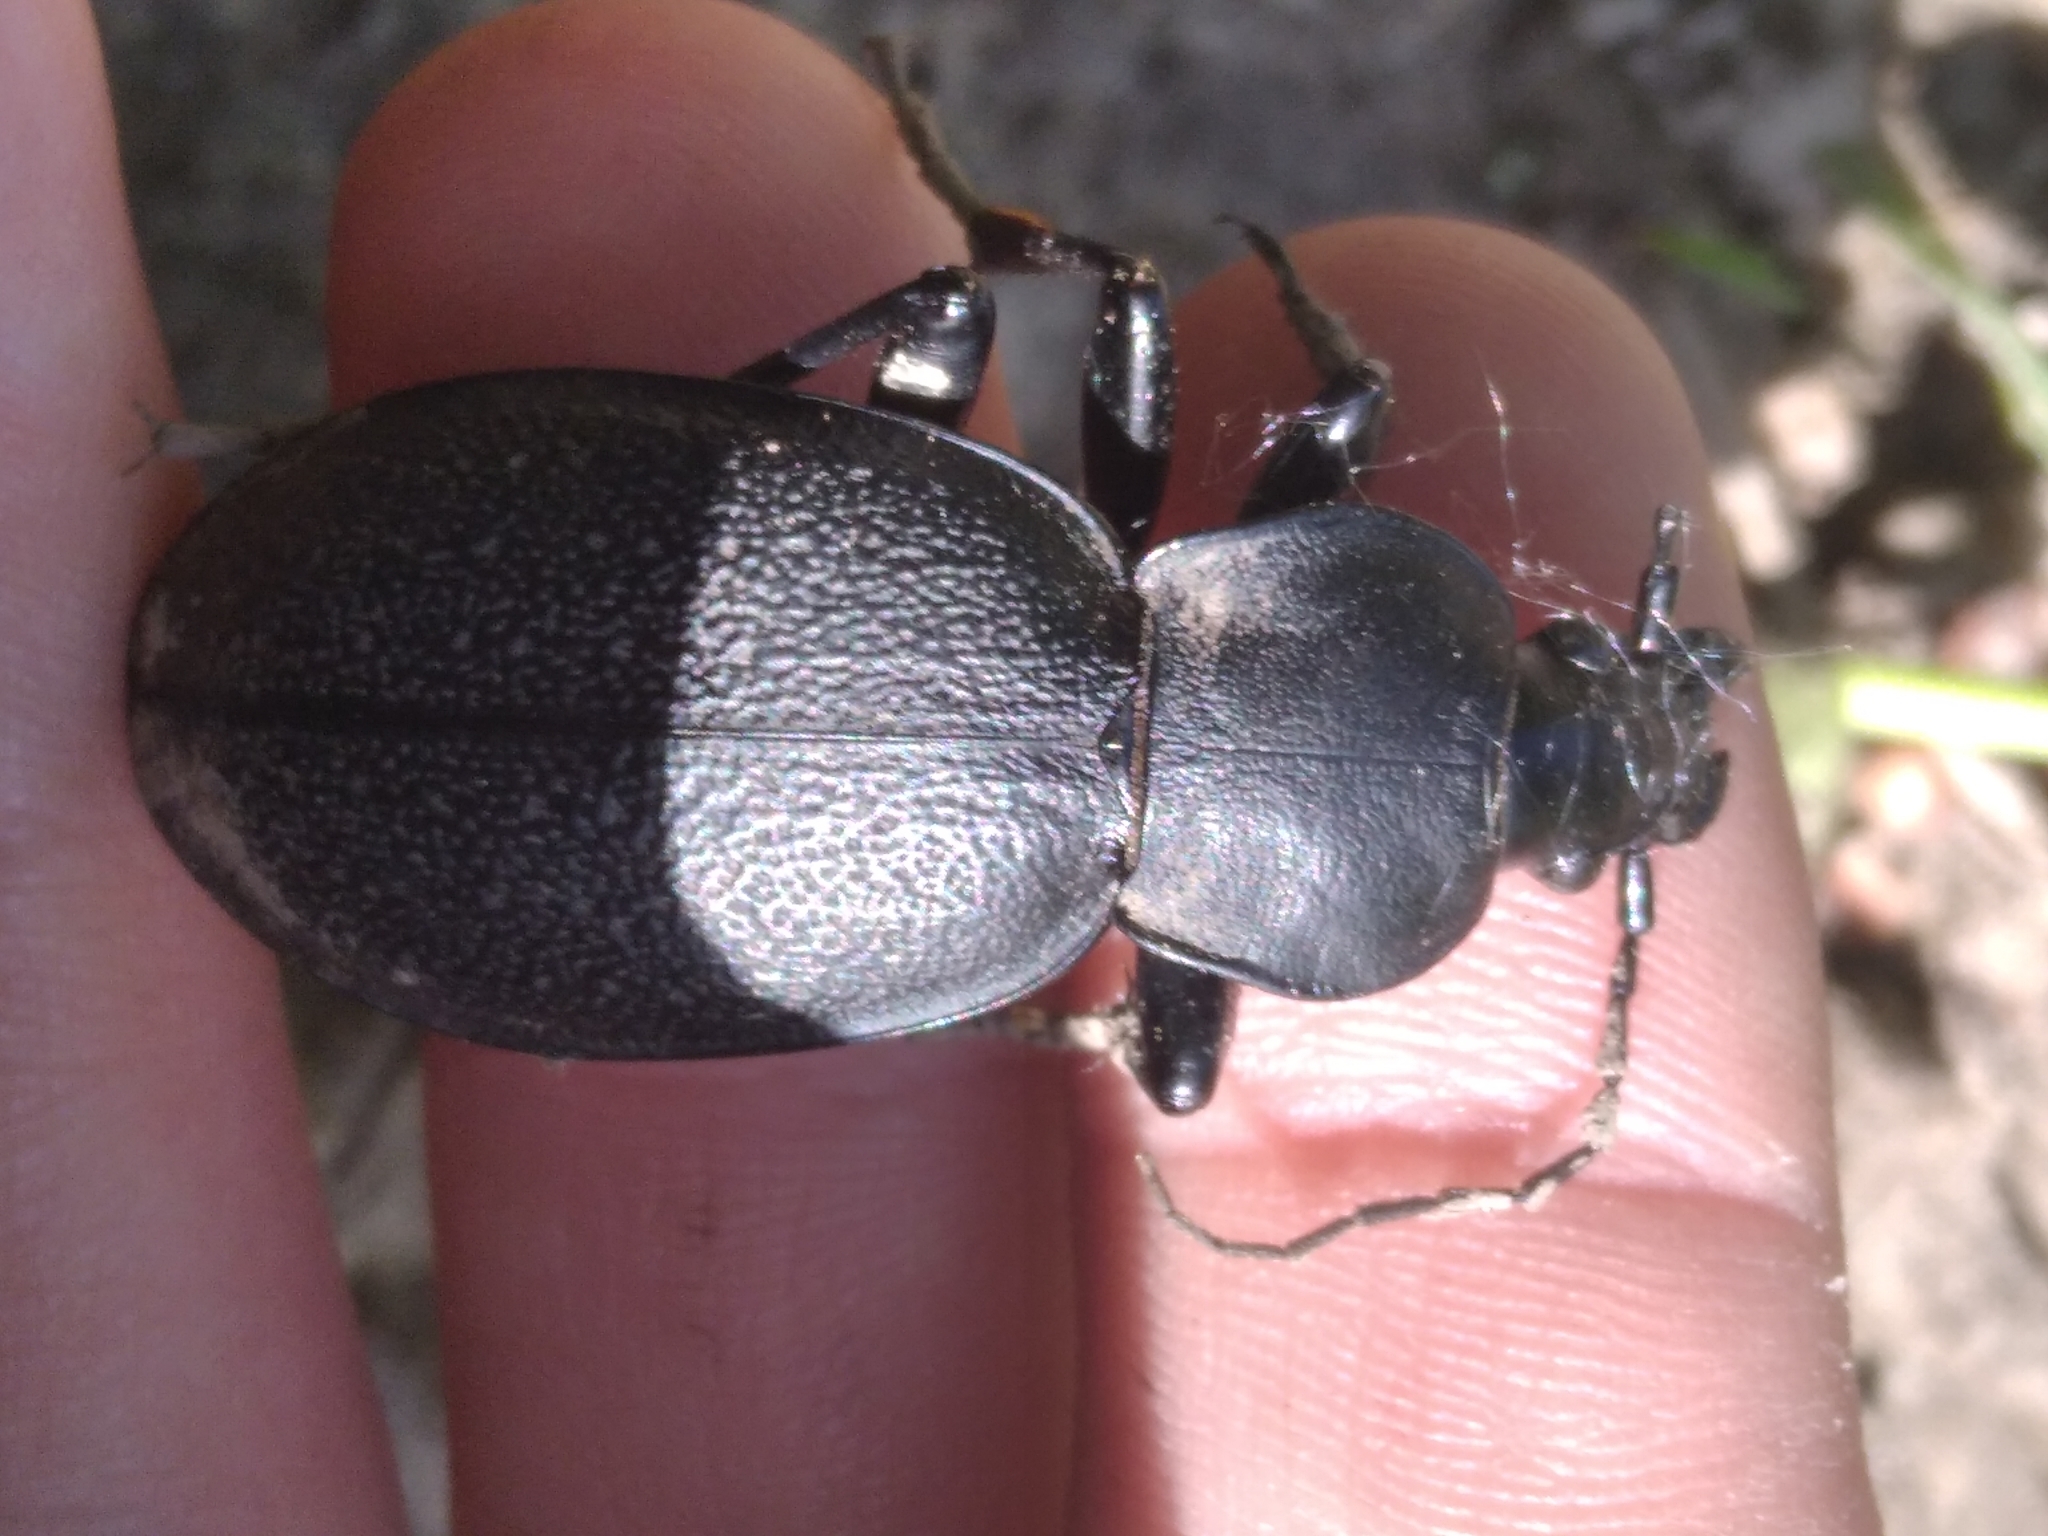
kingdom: Animalia
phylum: Arthropoda
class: Insecta
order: Coleoptera
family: Carabidae
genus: Carabus
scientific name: Carabus coriaceus
